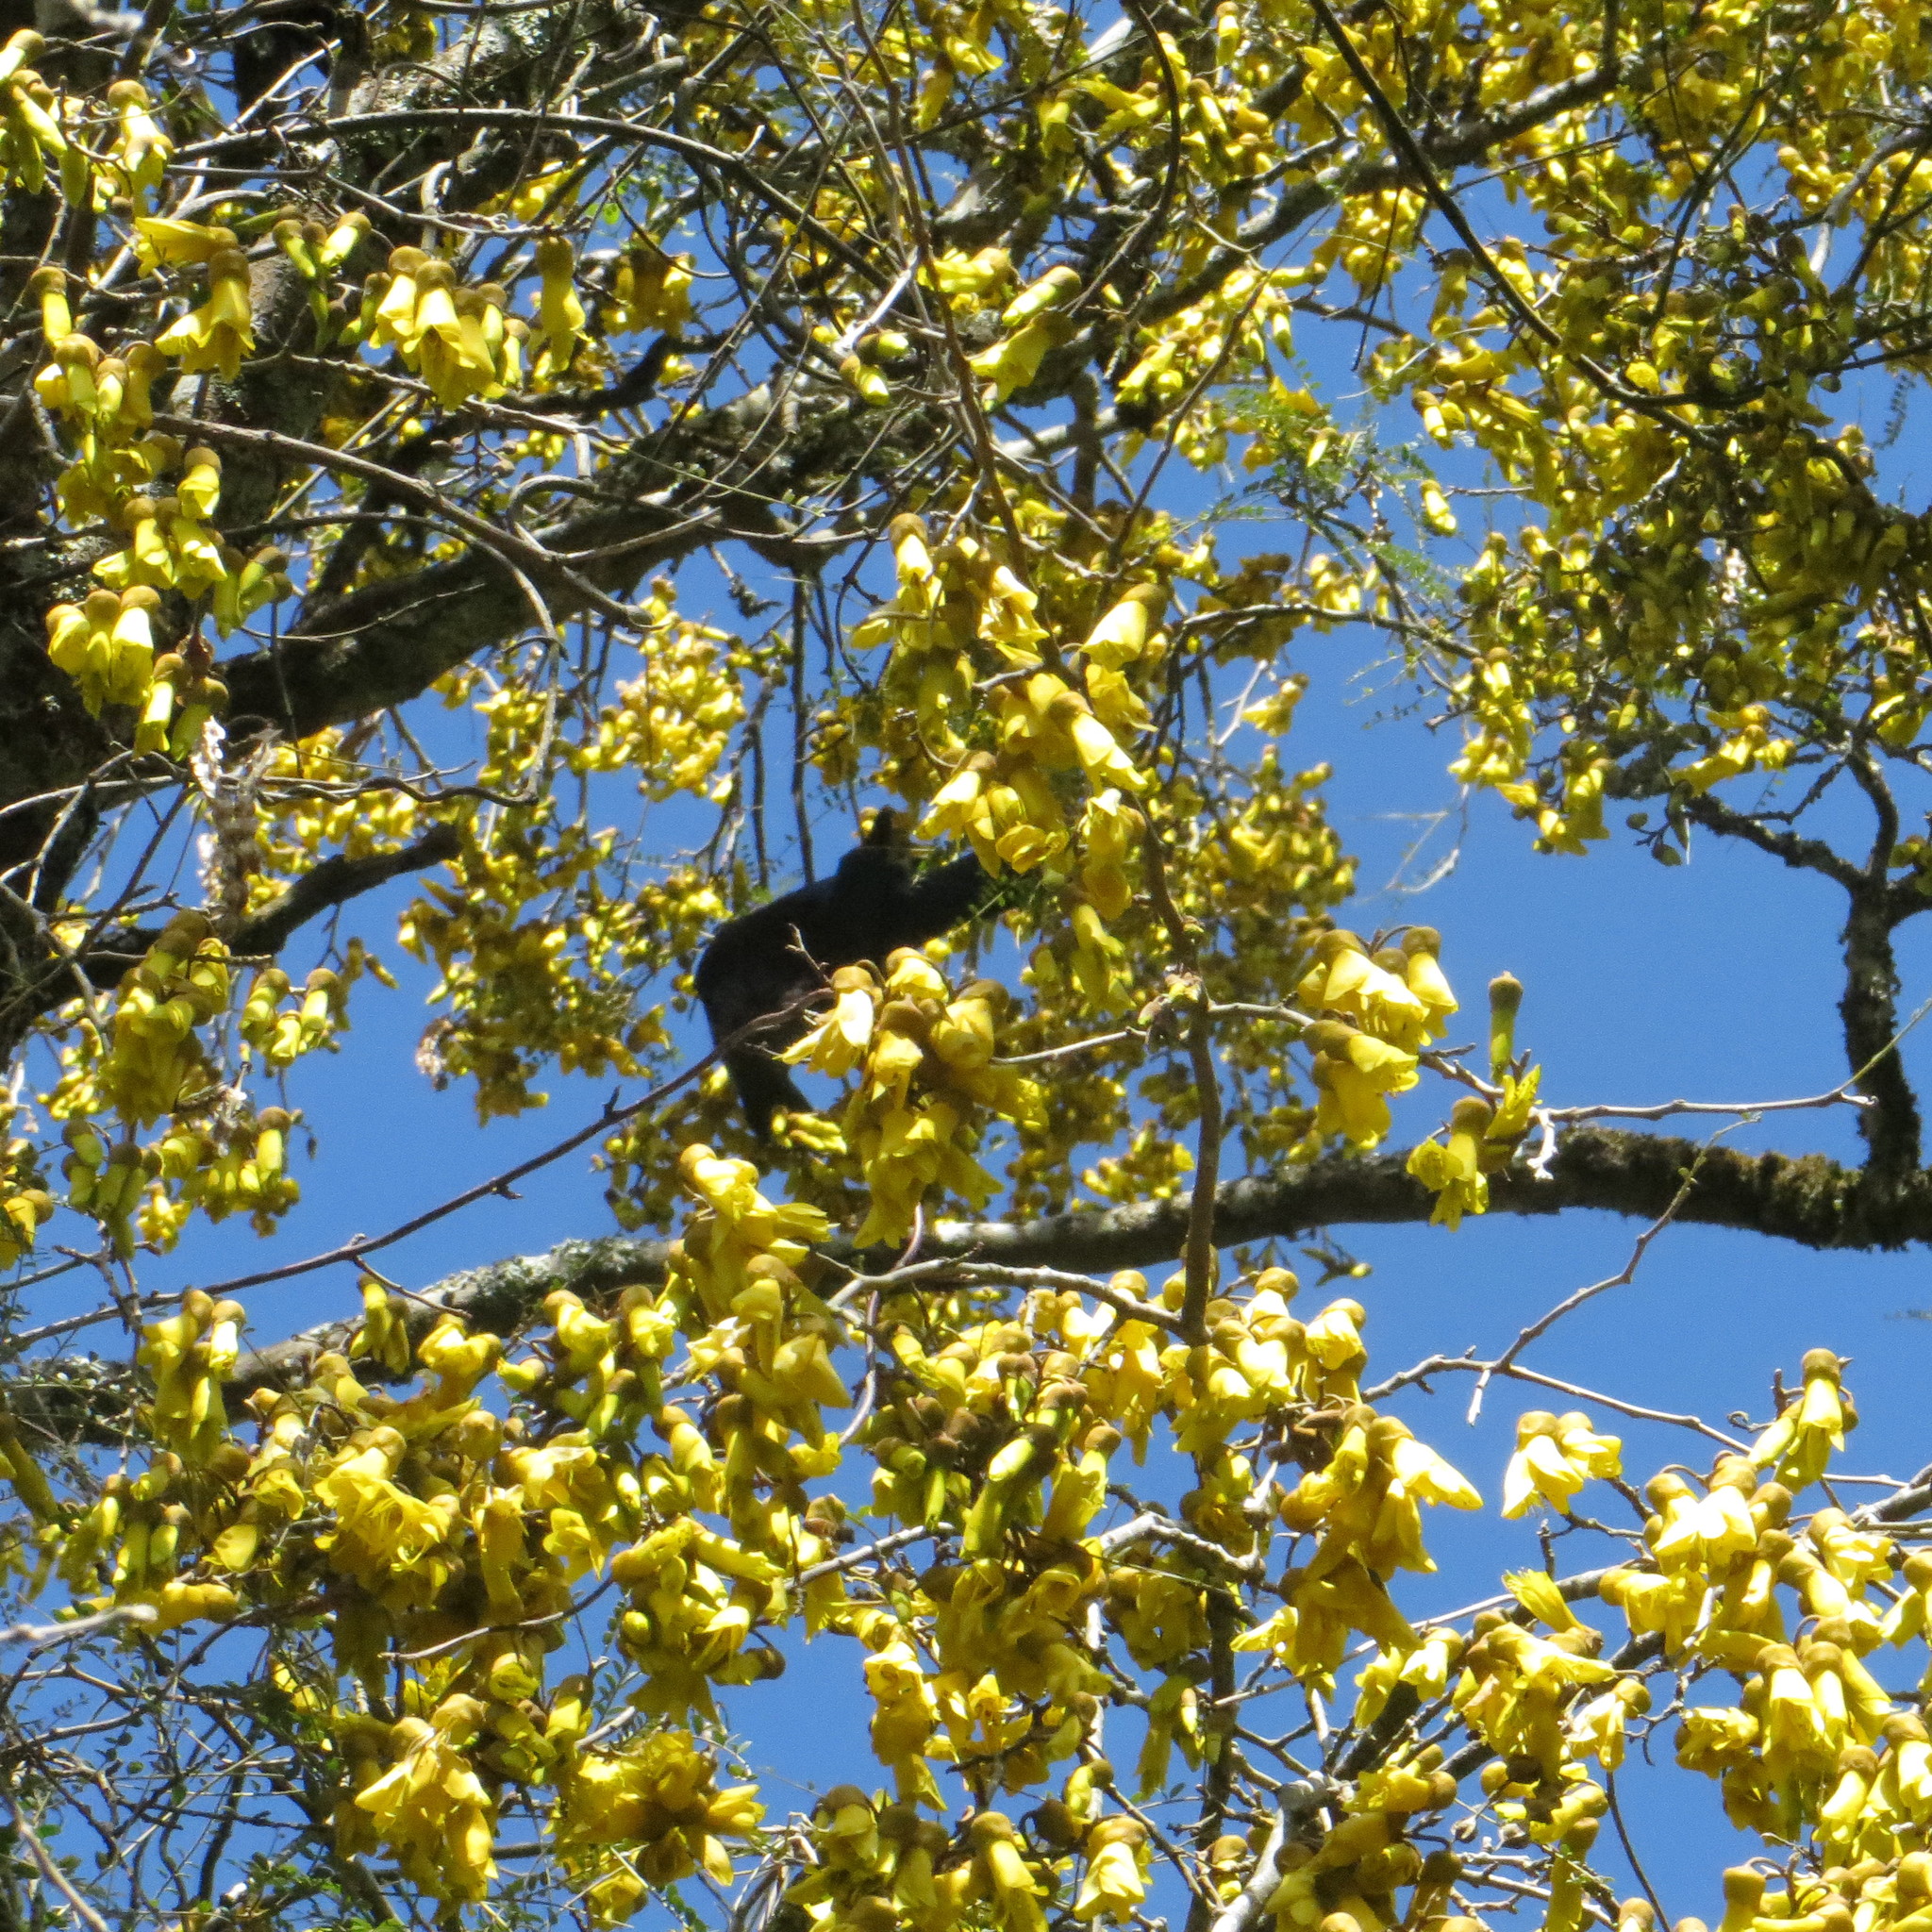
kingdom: Animalia
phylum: Chordata
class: Aves
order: Passeriformes
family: Meliphagidae
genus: Prosthemadera
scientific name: Prosthemadera novaeseelandiae
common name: Tui
